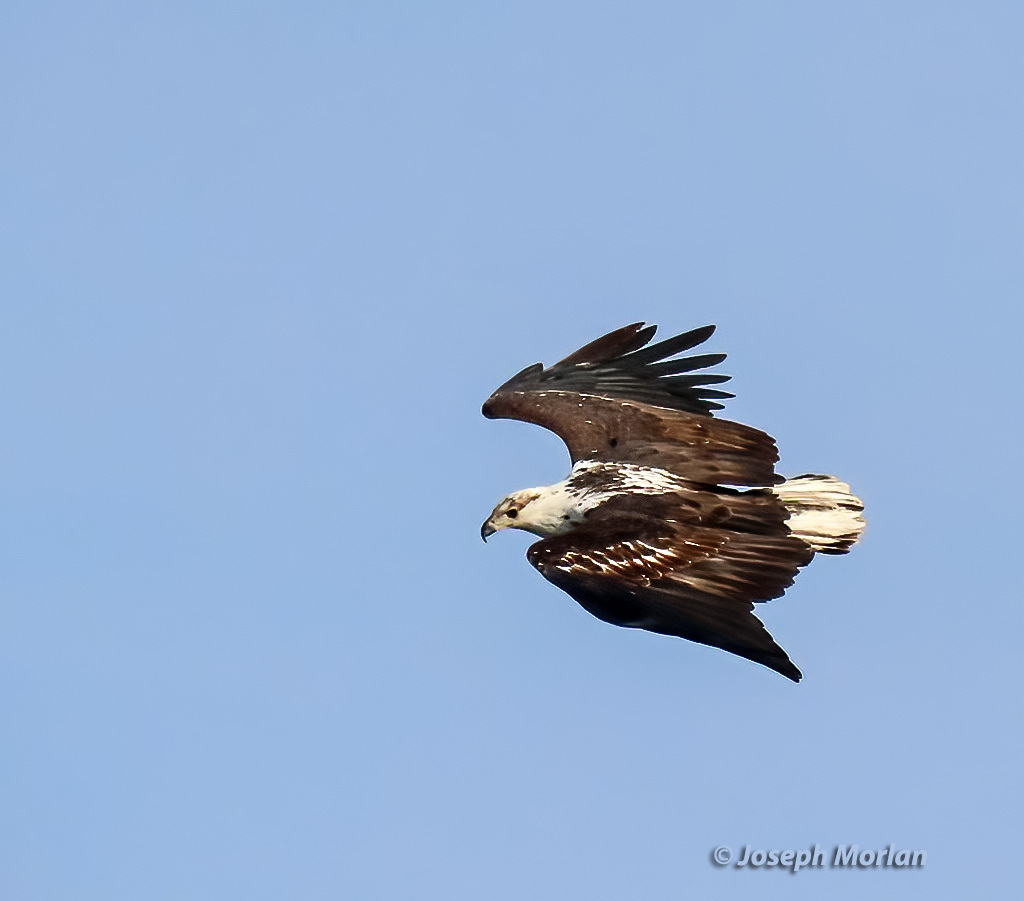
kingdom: Animalia
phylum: Chordata
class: Aves
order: Accipitriformes
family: Accipitridae
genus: Haliaeetus
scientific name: Haliaeetus vocifer
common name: African fish eagle
